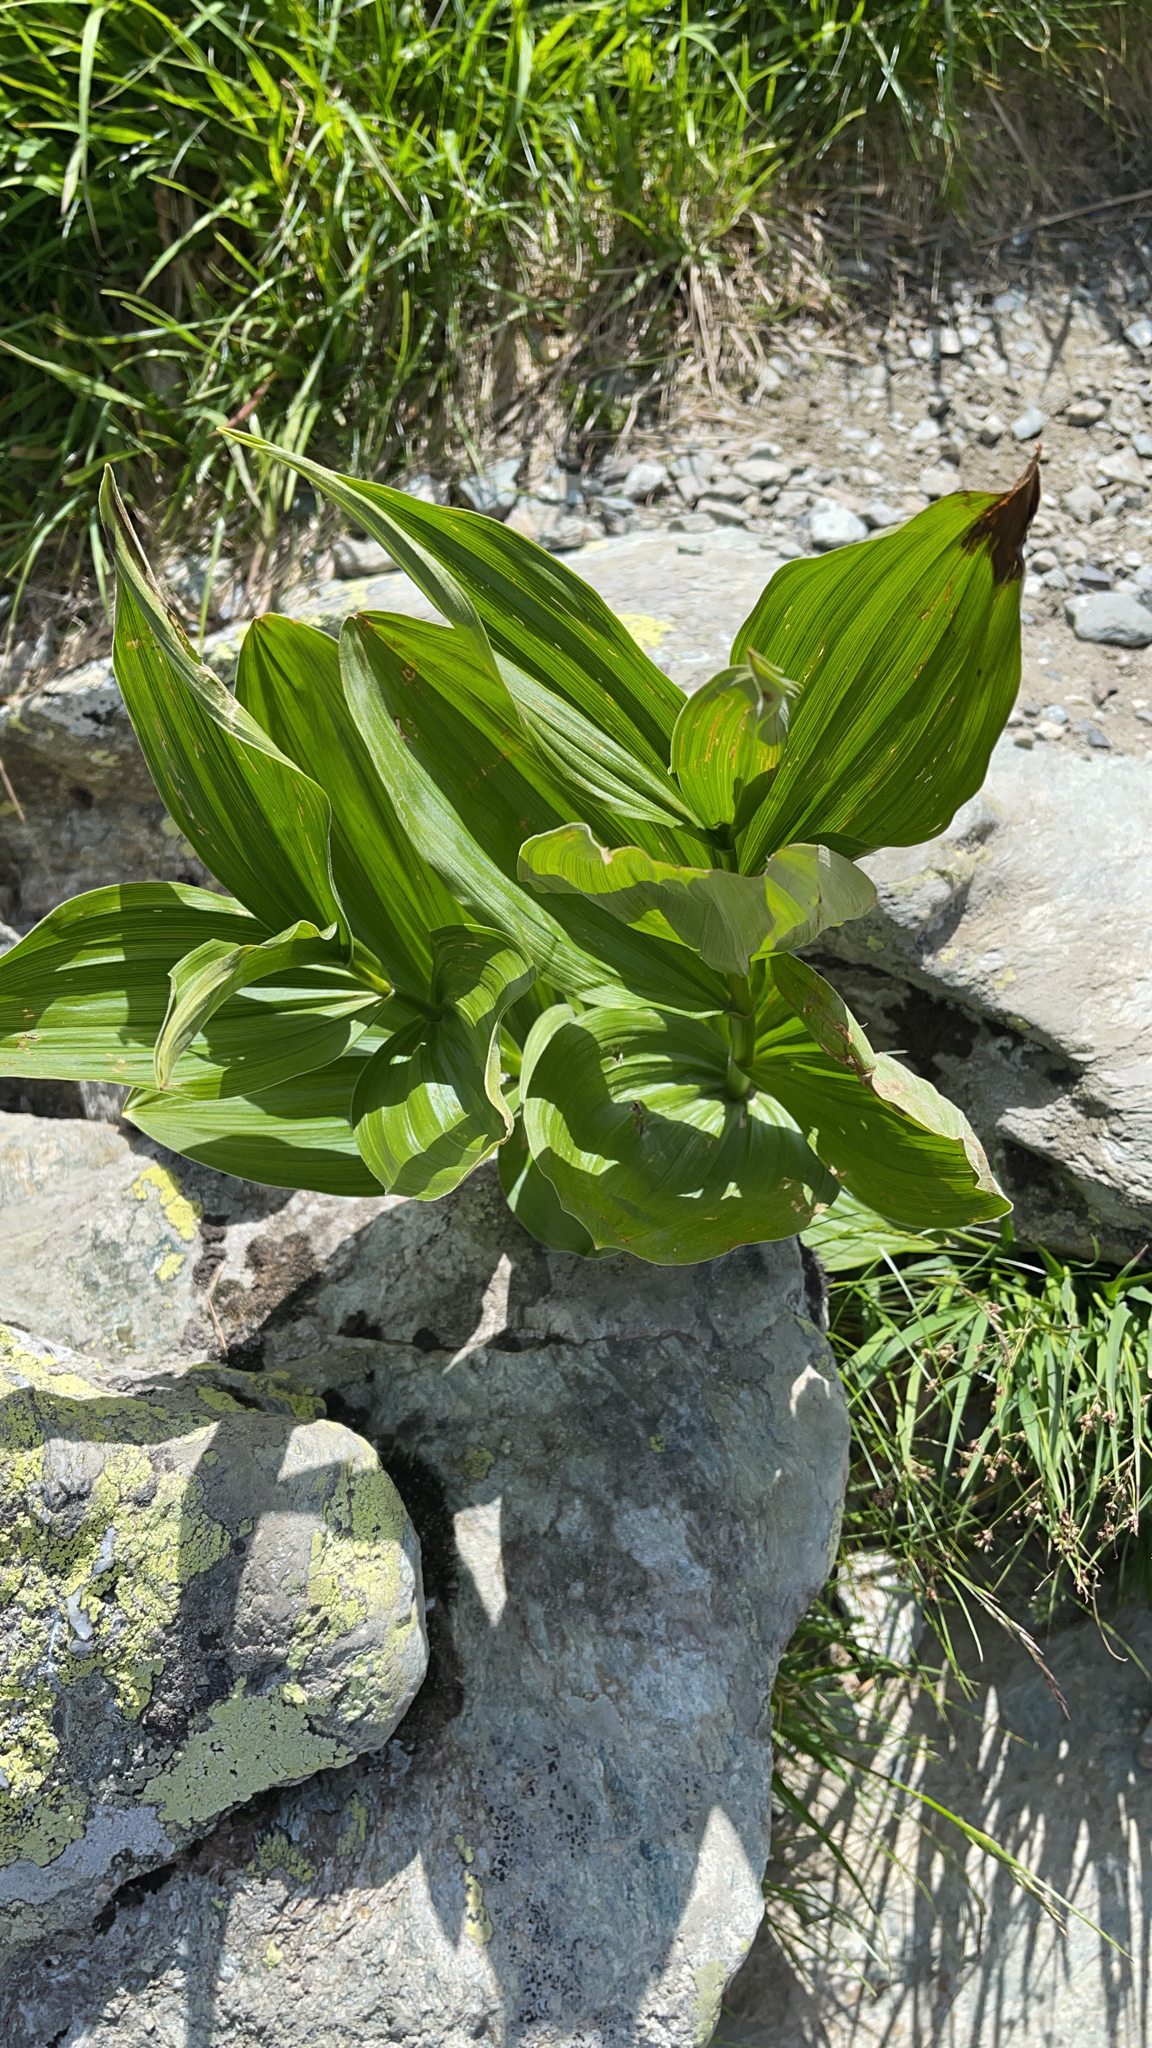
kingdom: Plantae
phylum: Tracheophyta
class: Liliopsida
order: Liliales
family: Melanthiaceae
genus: Veratrum
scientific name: Veratrum album
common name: White veratrum
